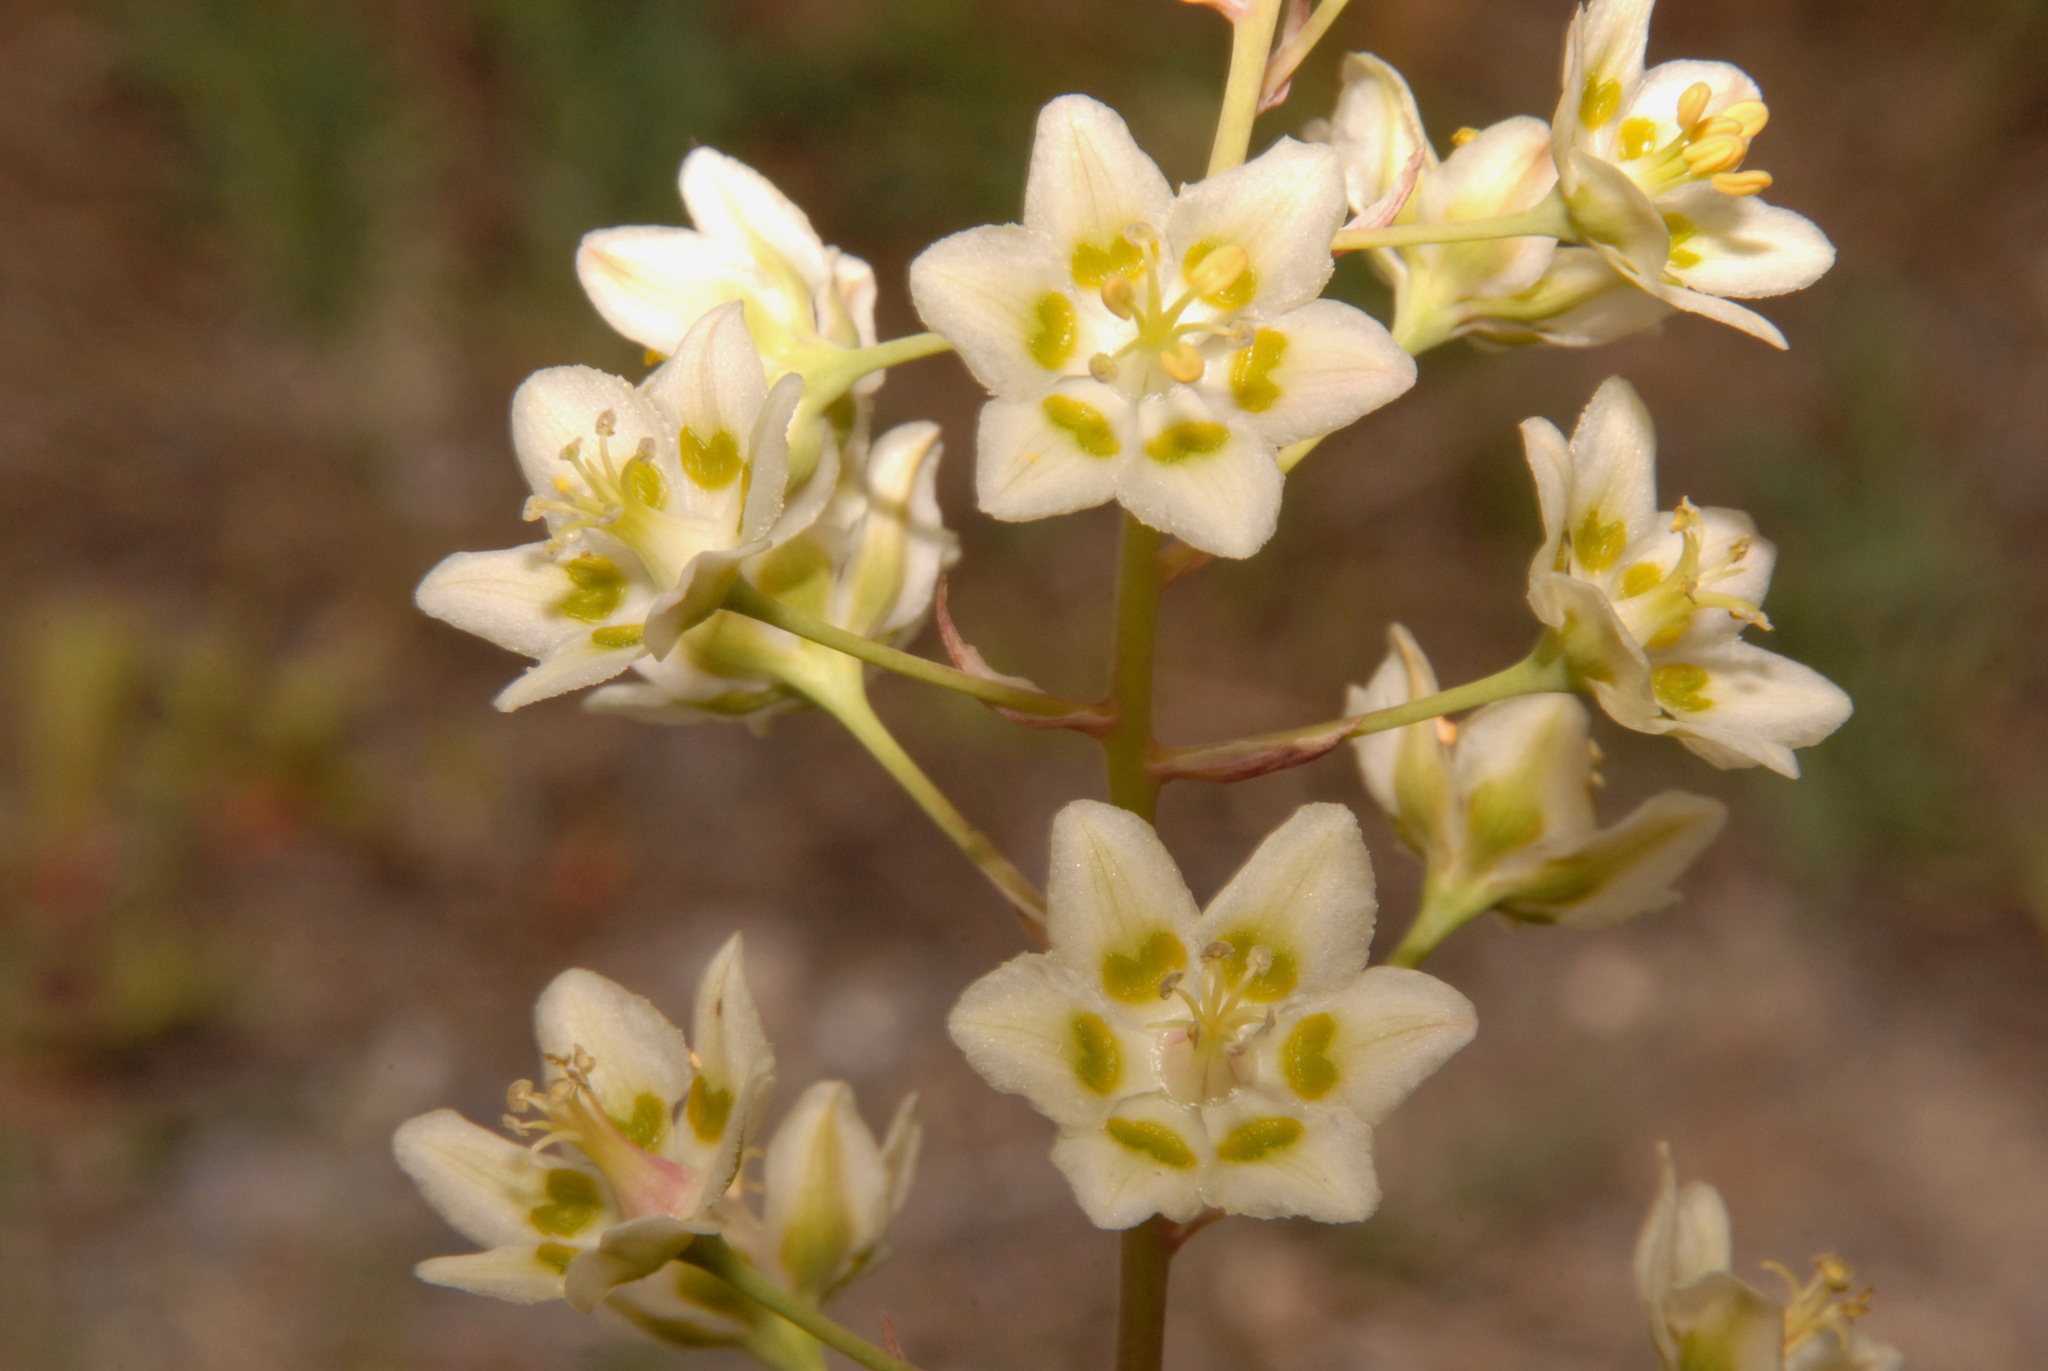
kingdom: Plantae
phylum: Tracheophyta
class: Liliopsida
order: Liliales
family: Melanthiaceae
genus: Anticlea
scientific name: Anticlea elegans
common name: Mountain death camas
